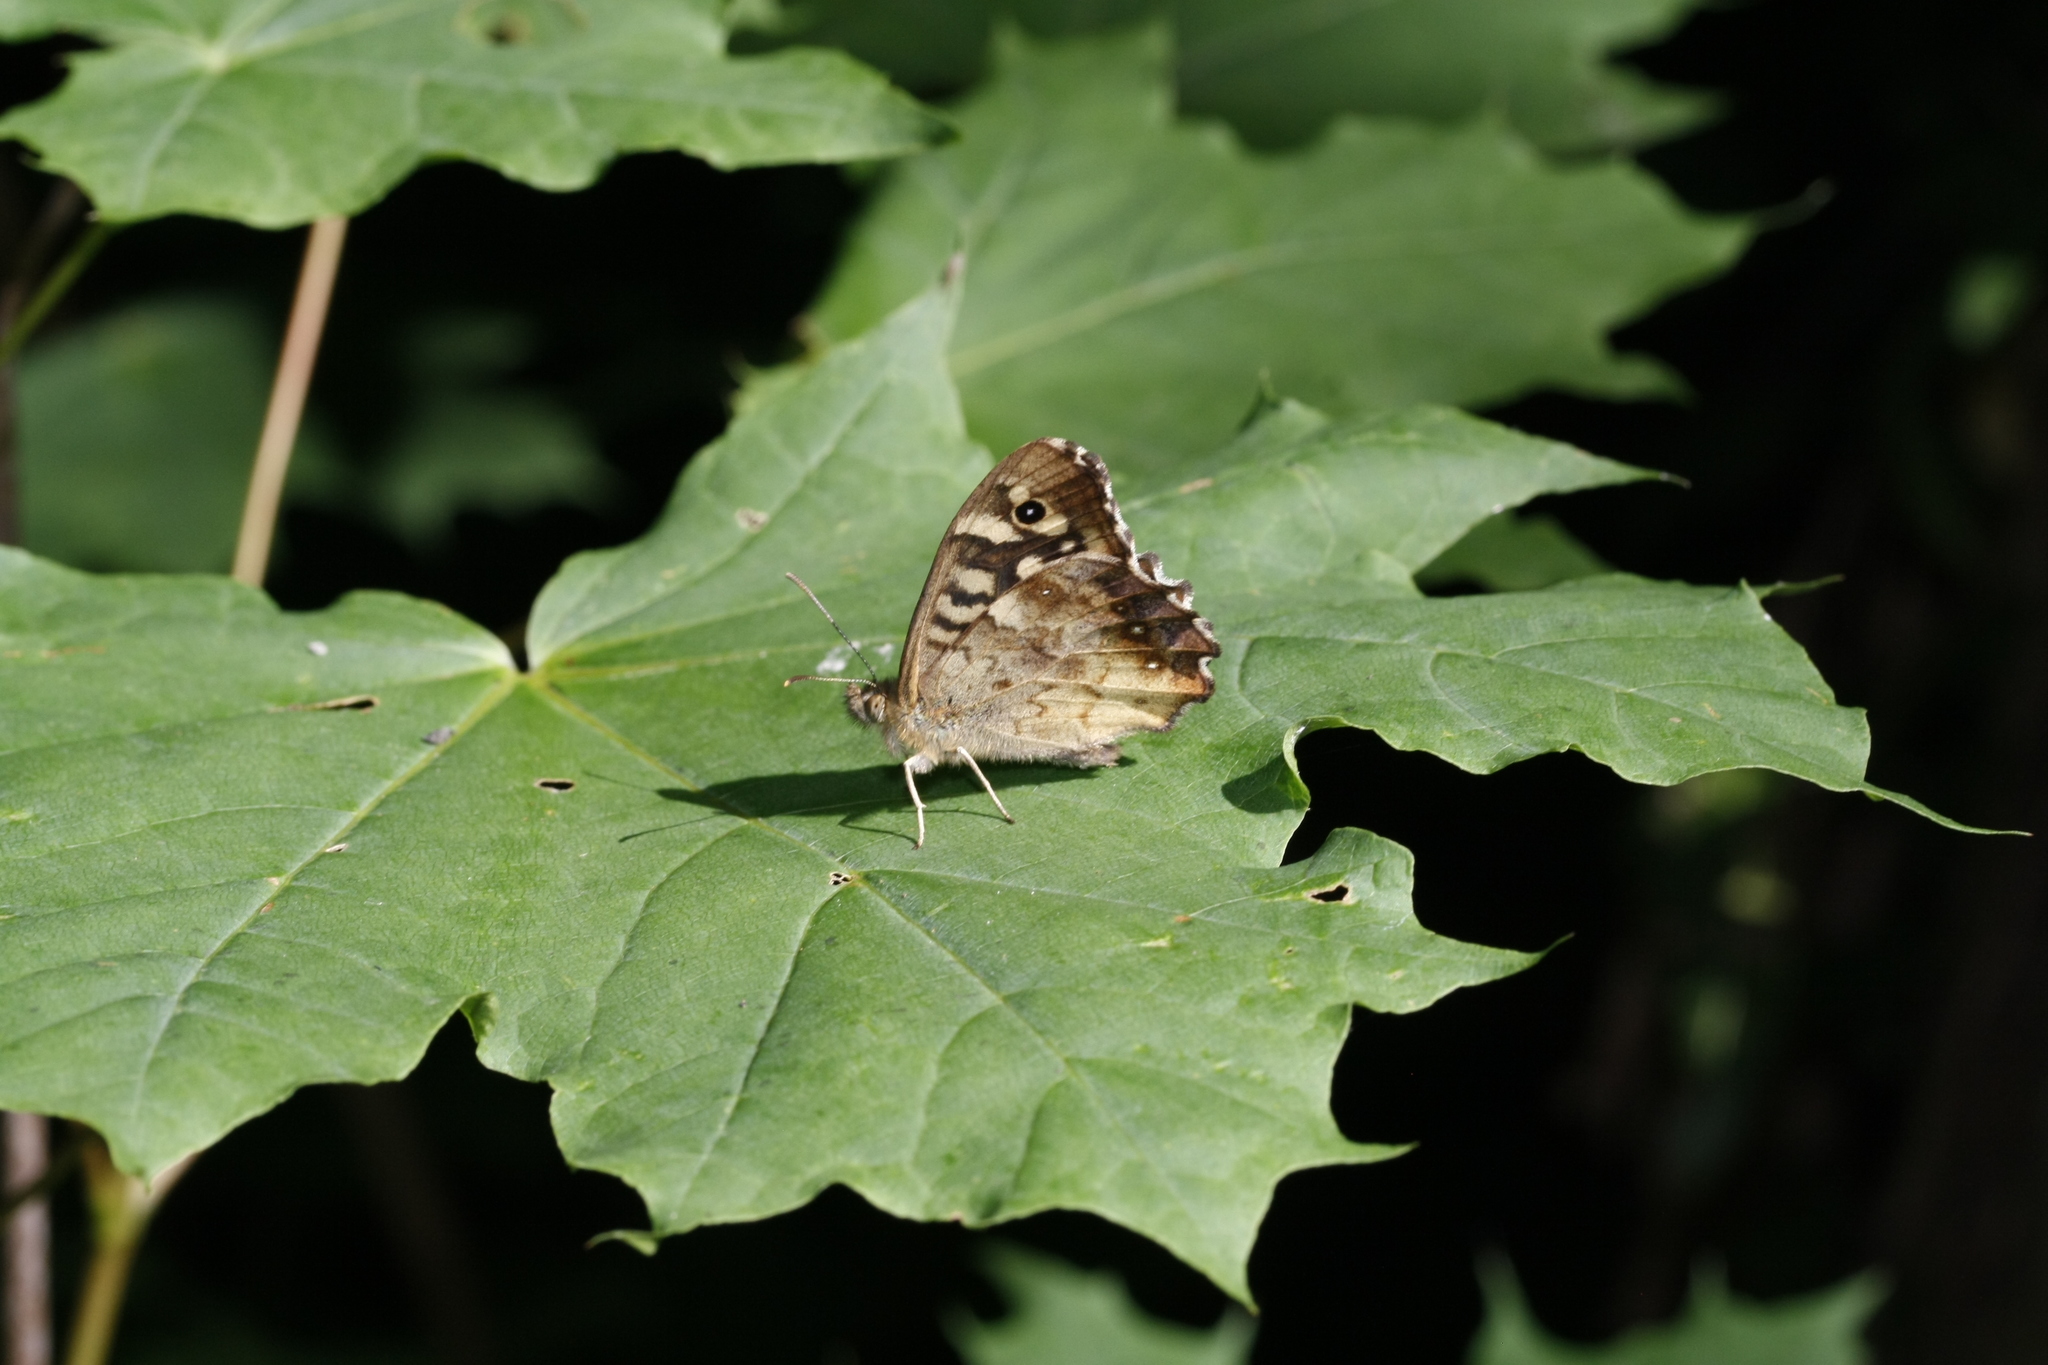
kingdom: Animalia
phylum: Arthropoda
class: Insecta
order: Lepidoptera
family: Nymphalidae
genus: Pararge
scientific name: Pararge aegeria
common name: Speckled wood
